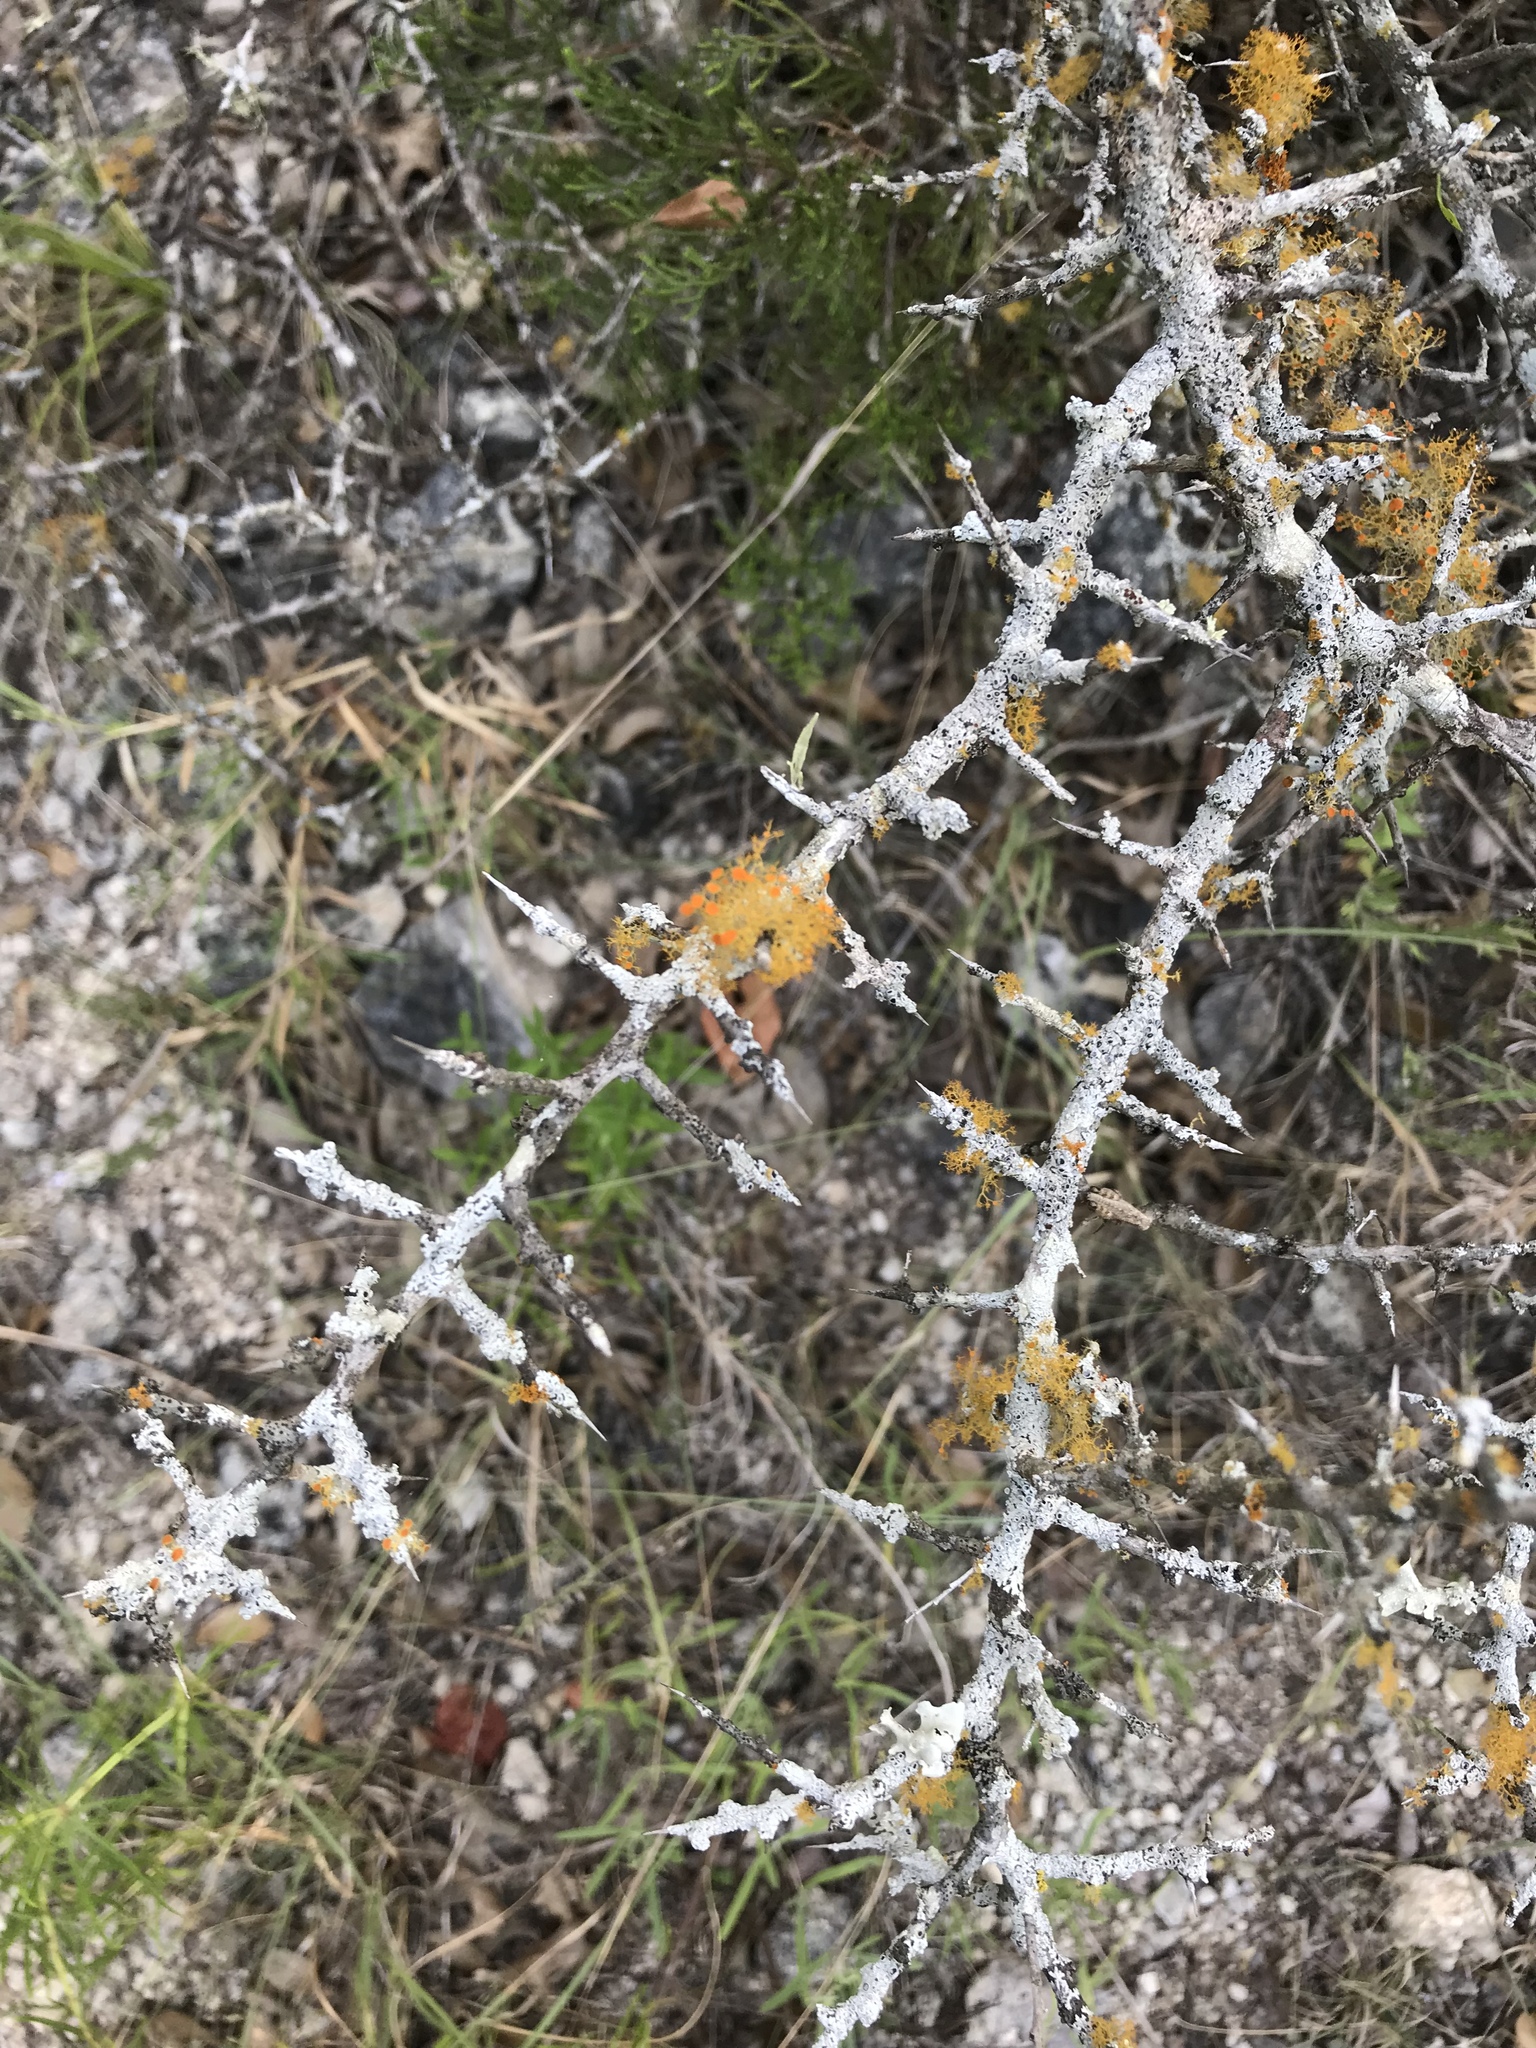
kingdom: Plantae
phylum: Tracheophyta
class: Magnoliopsida
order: Rosales
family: Rhamnaceae
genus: Condalia
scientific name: Condalia hookeri
